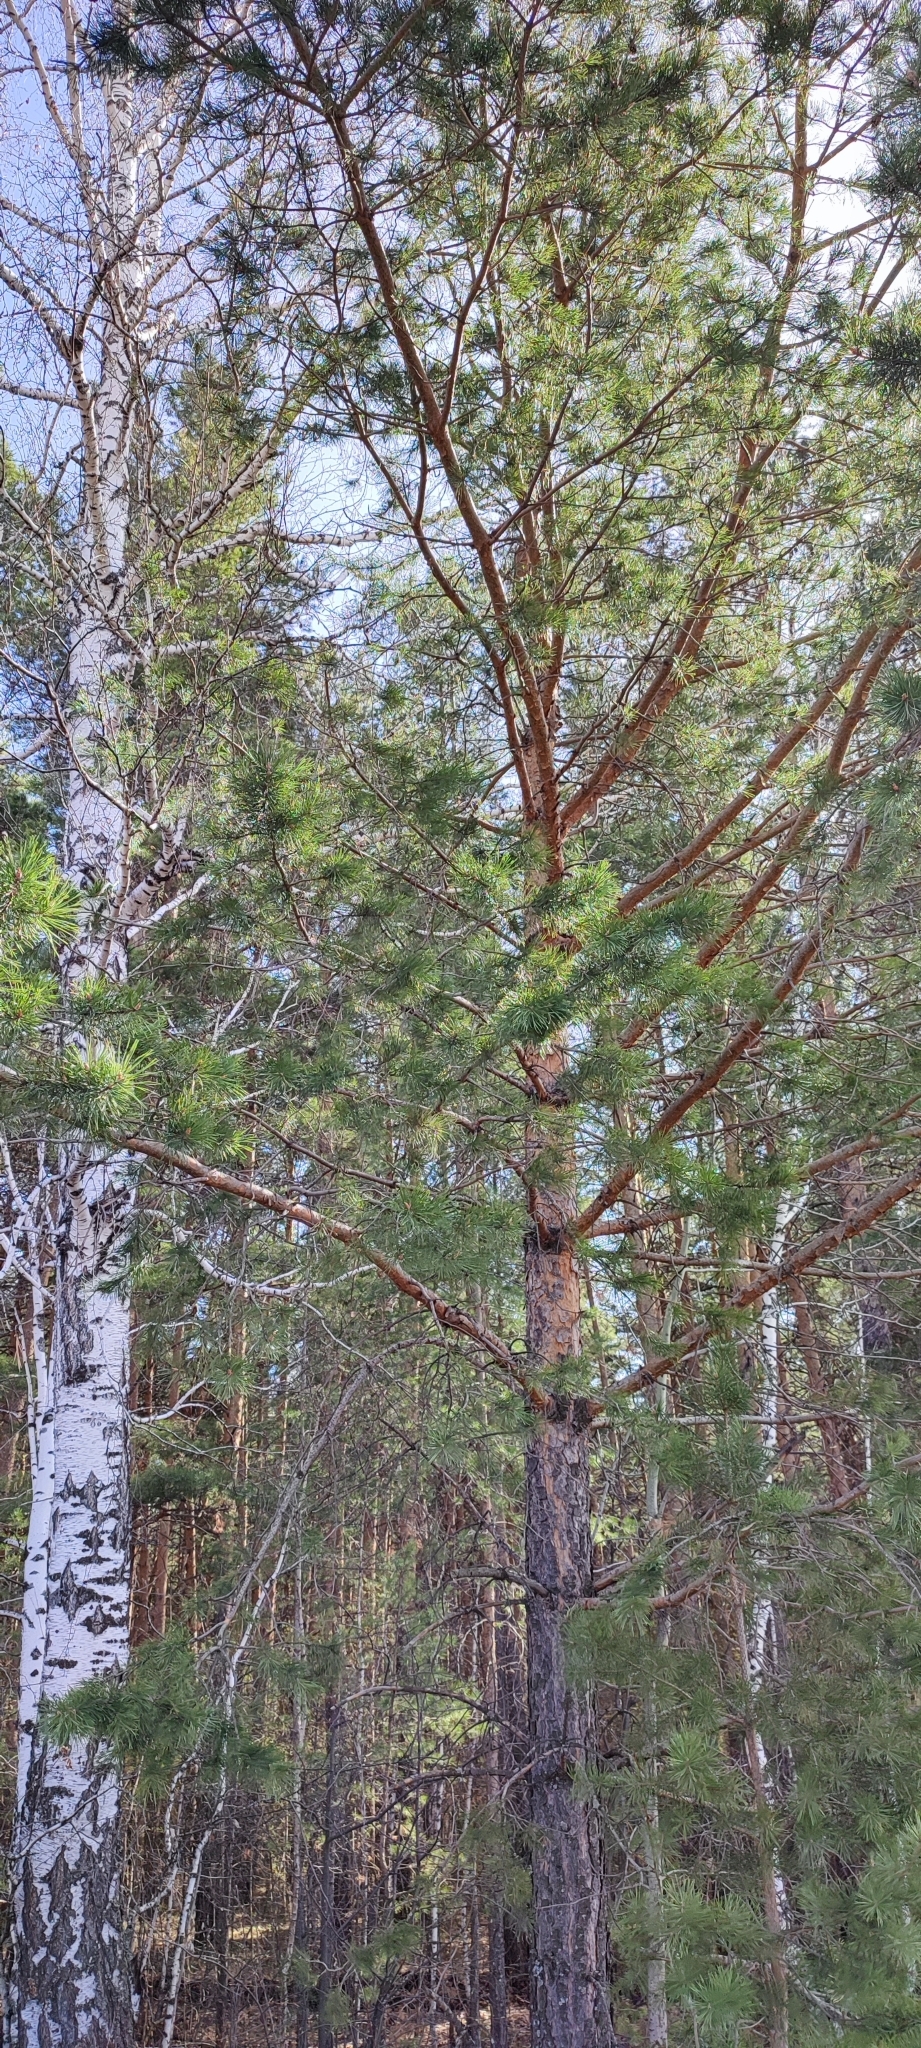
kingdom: Plantae
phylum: Tracheophyta
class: Pinopsida
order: Pinales
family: Pinaceae
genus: Pinus
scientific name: Pinus sylvestris
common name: Scots pine
